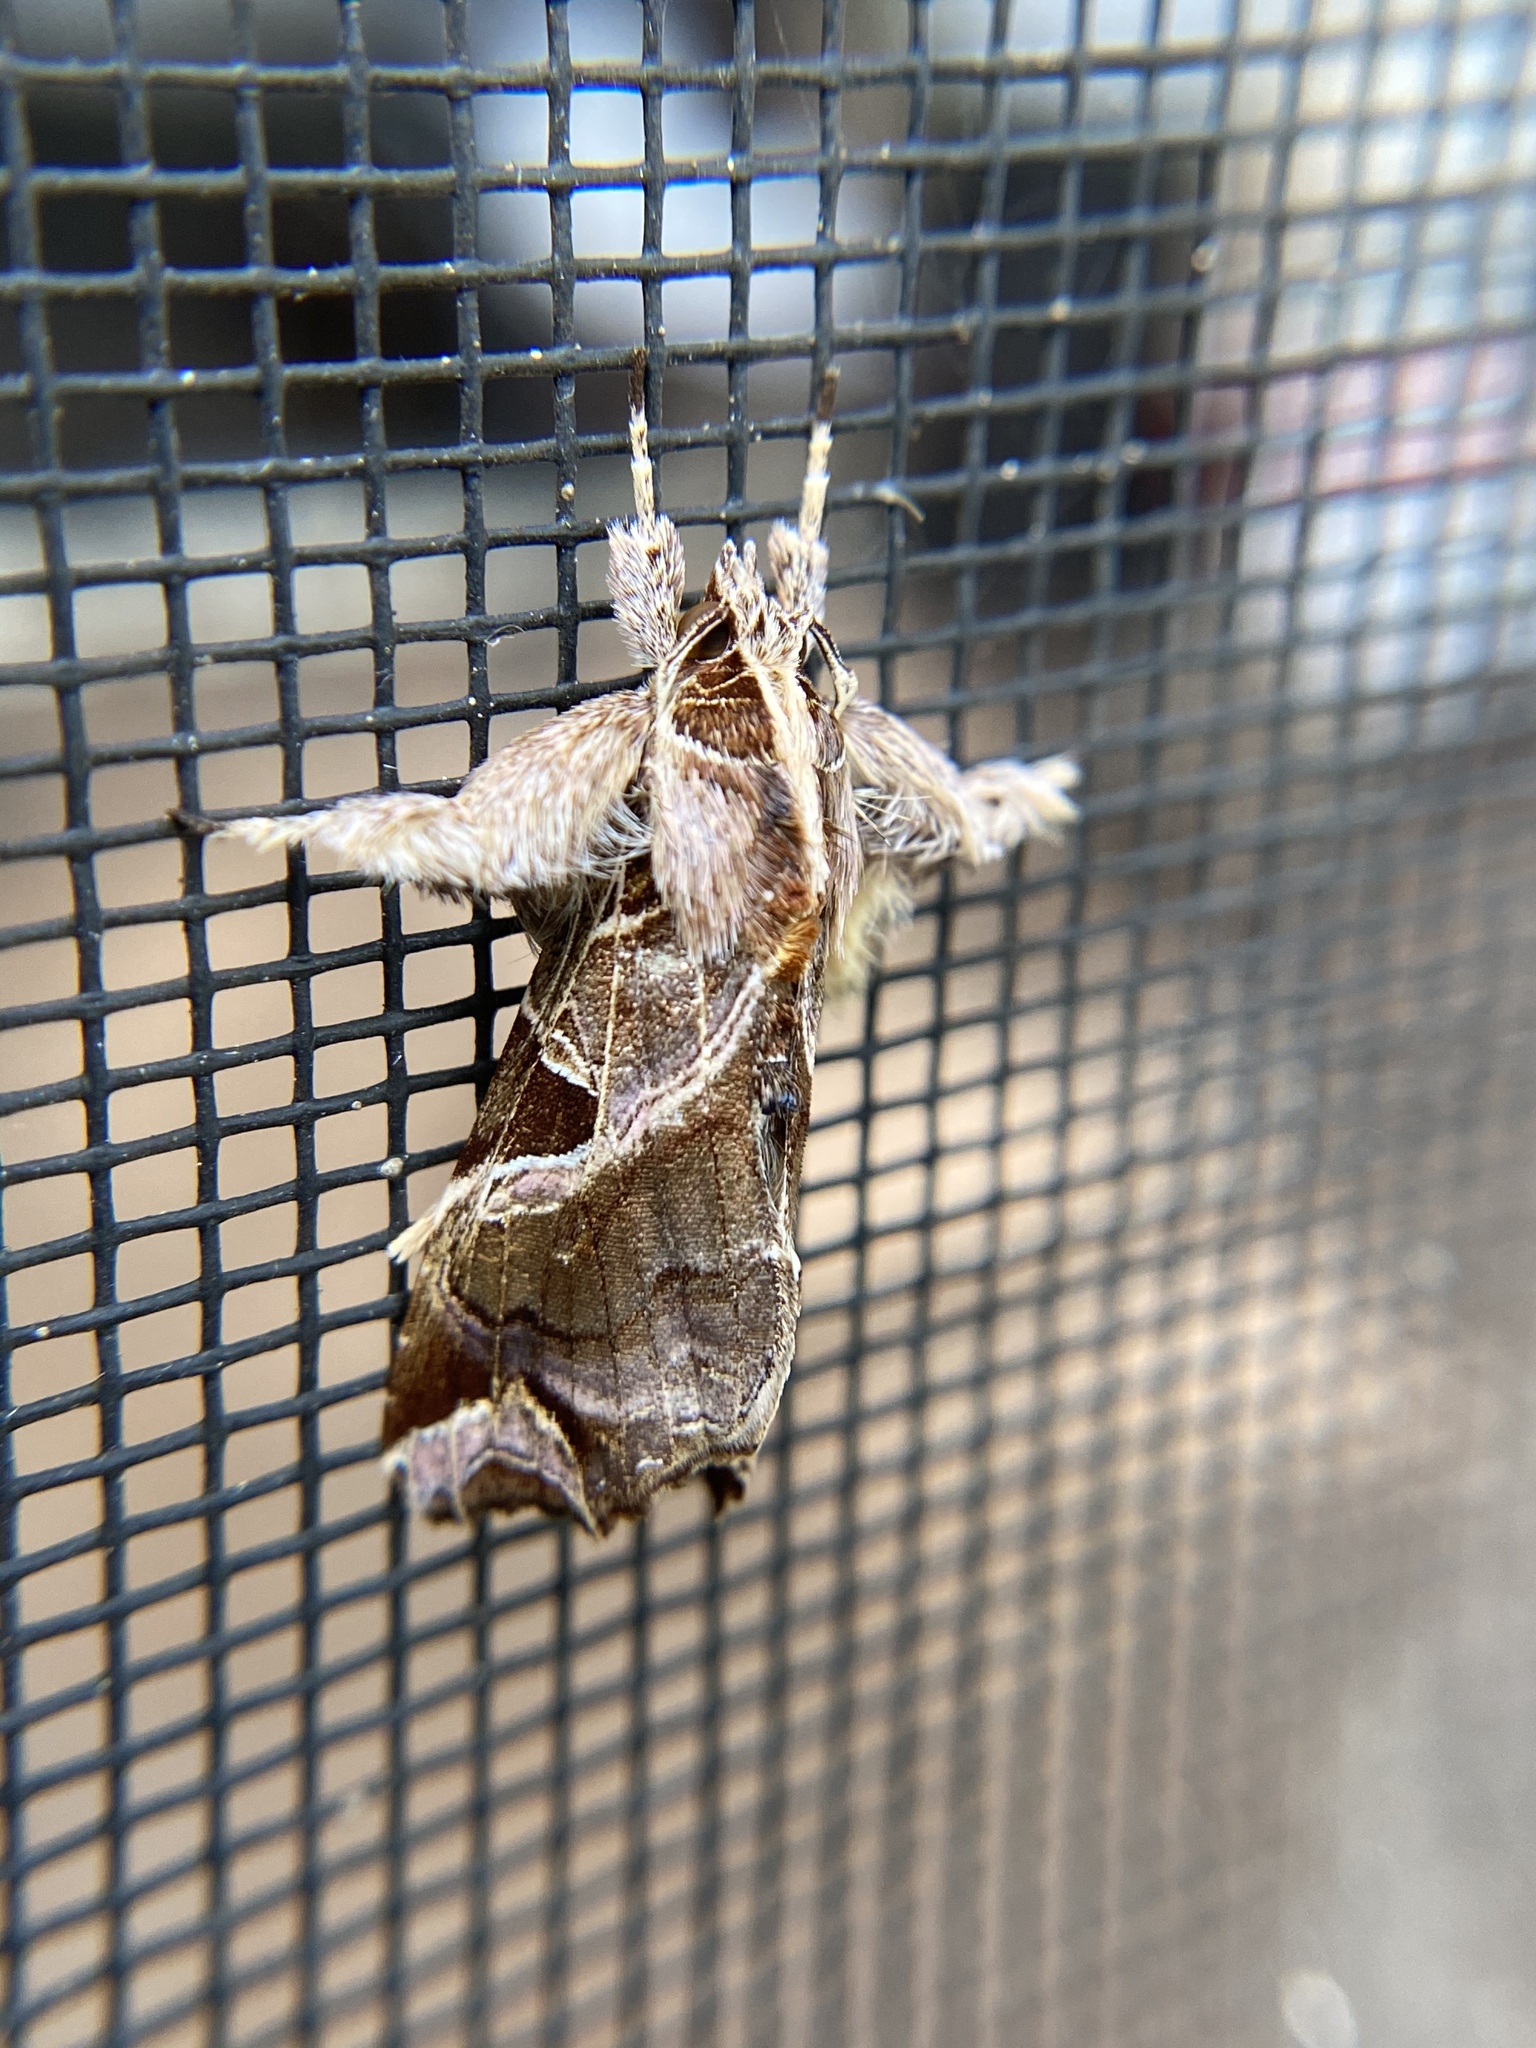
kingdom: Animalia
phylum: Arthropoda
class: Insecta
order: Lepidoptera
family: Noctuidae
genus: Callopistria
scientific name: Callopistria floridensis
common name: Florida fern moth
